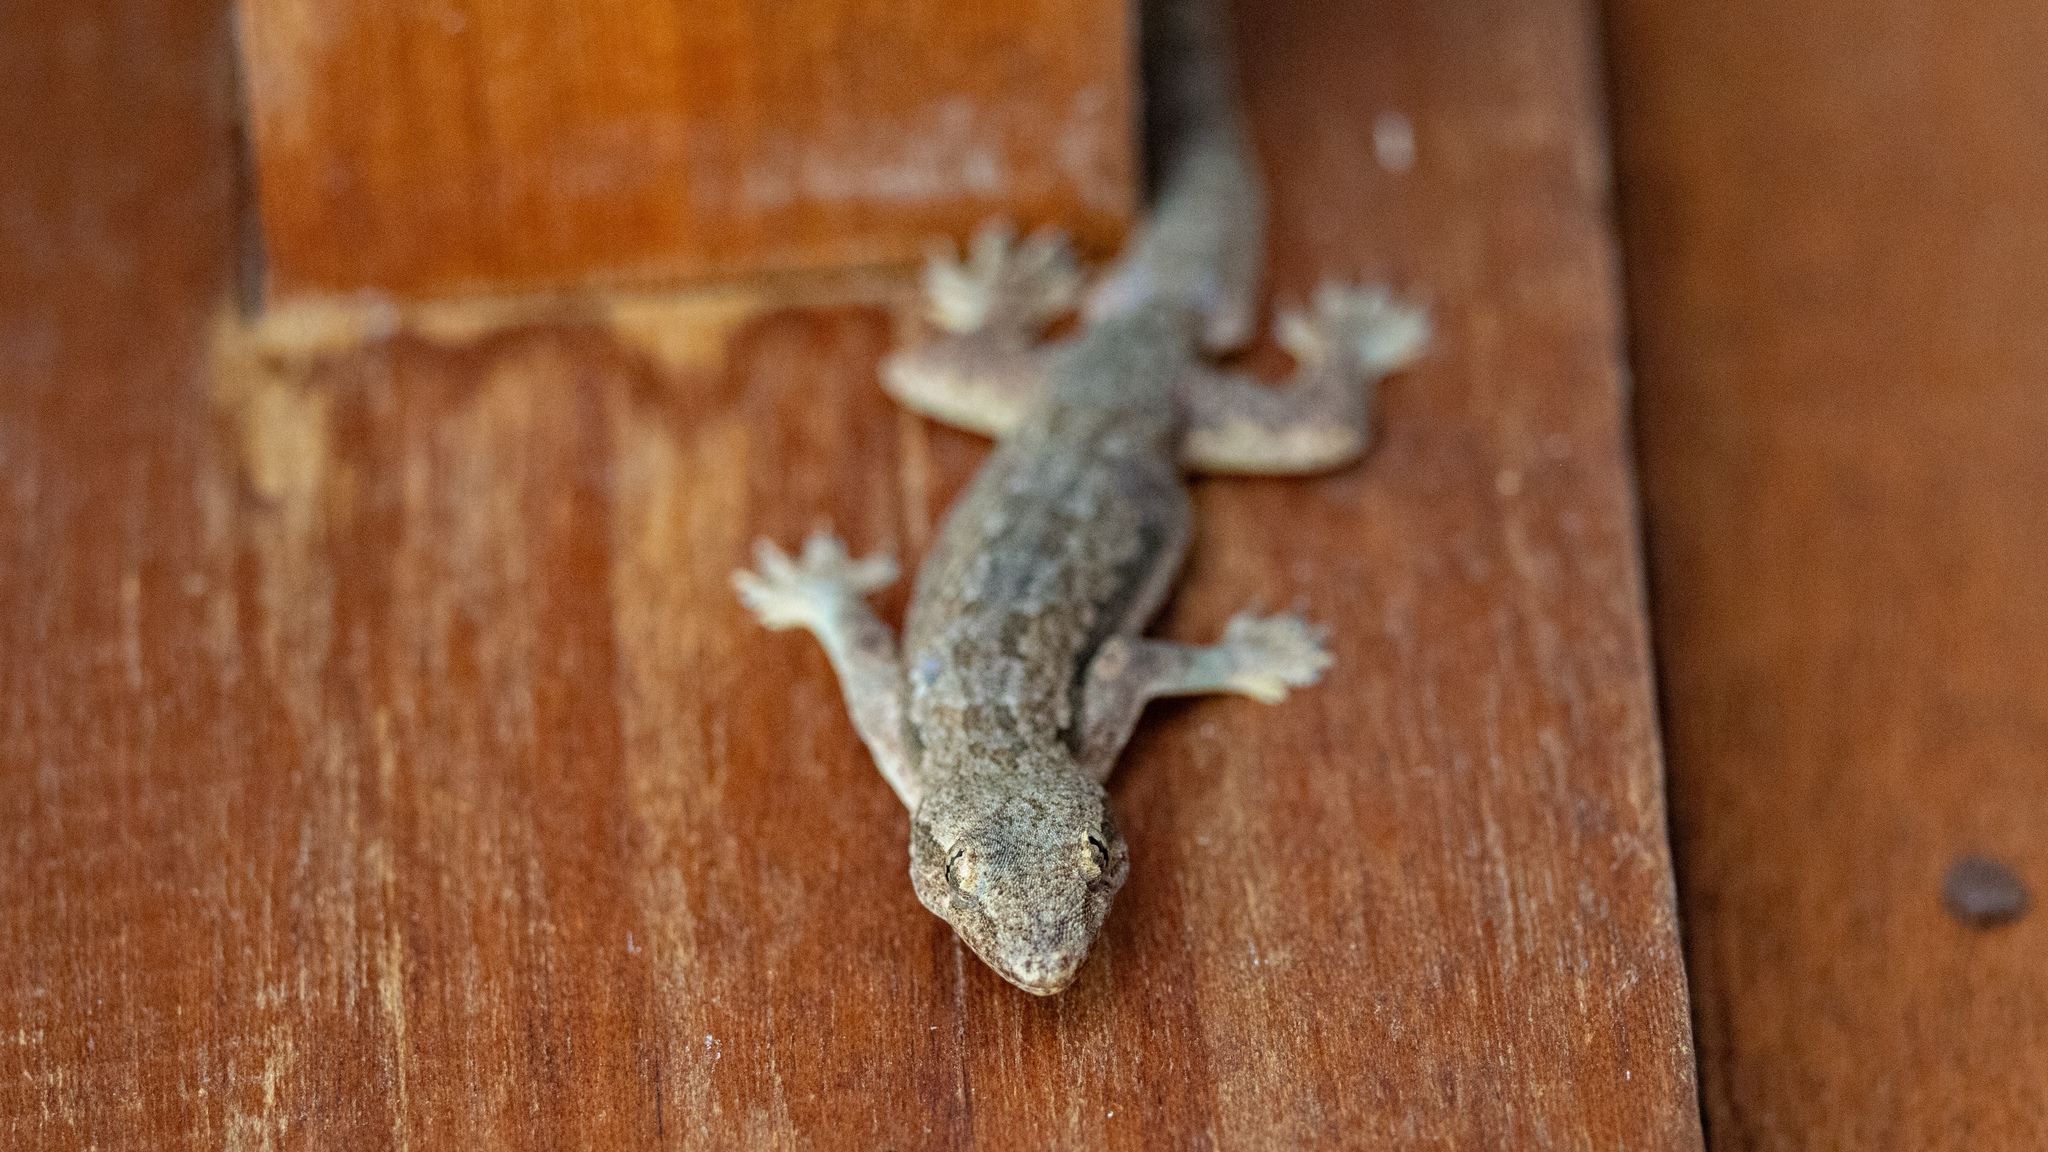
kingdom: Animalia
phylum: Chordata
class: Squamata
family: Gekkonidae
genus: Hemidactylus
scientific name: Hemidactylus platyurus
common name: Flat-tailed house gecko
